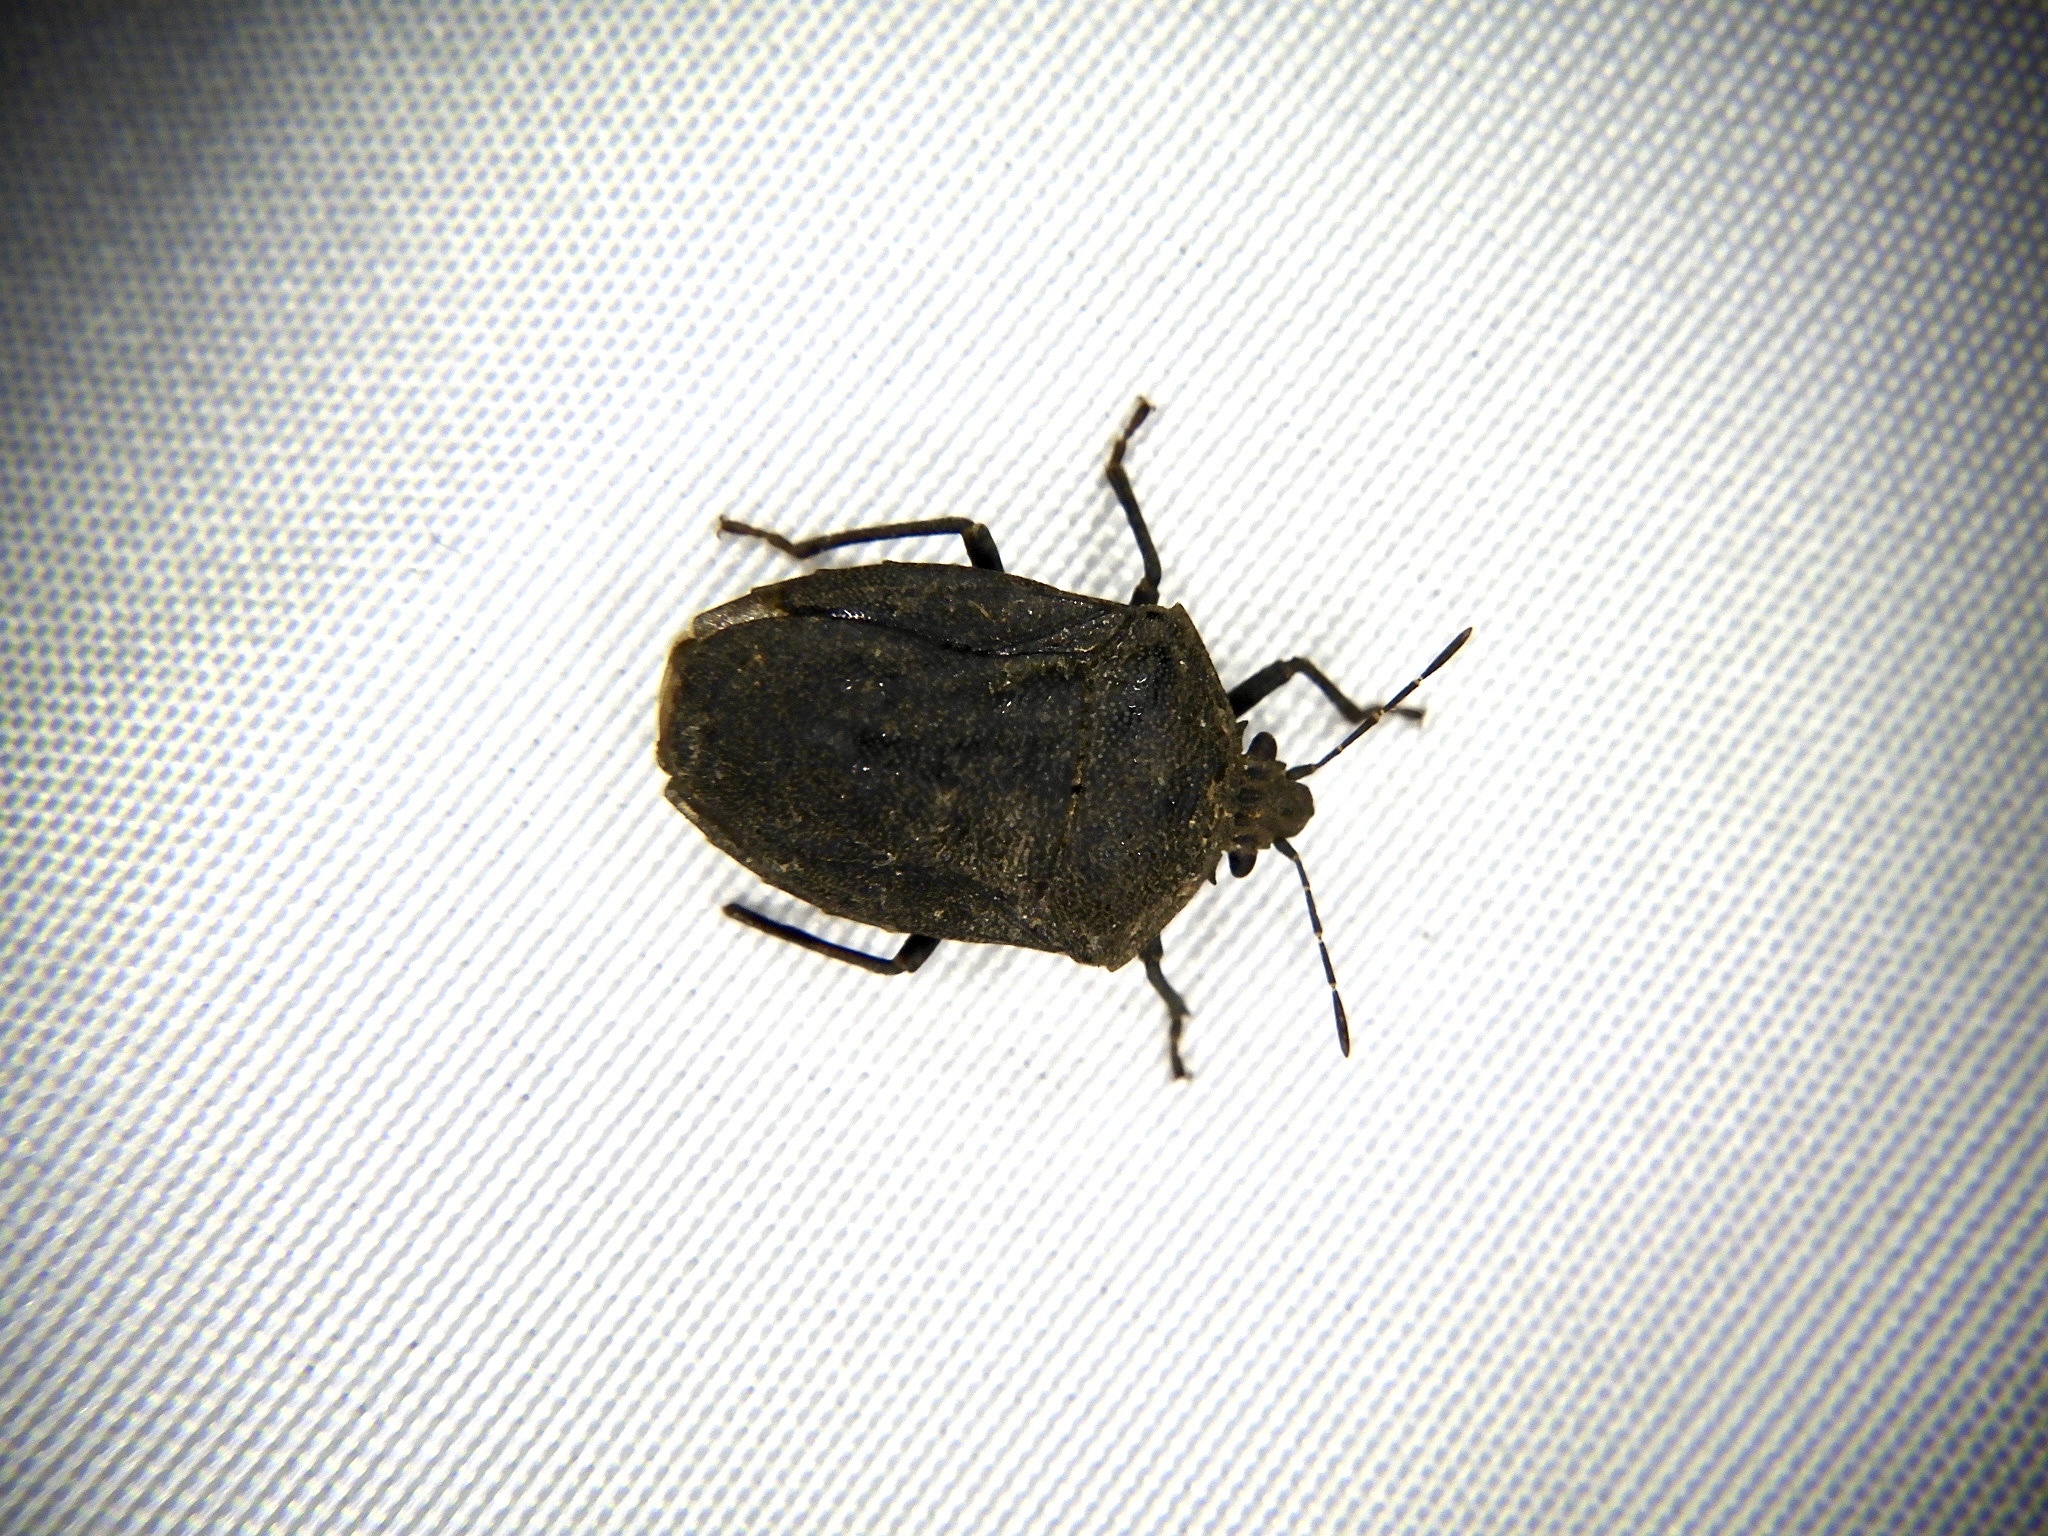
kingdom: Animalia
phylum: Arthropoda
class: Insecta
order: Hemiptera
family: Pentatomidae
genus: Scotinophara
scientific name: Scotinophara lurida
